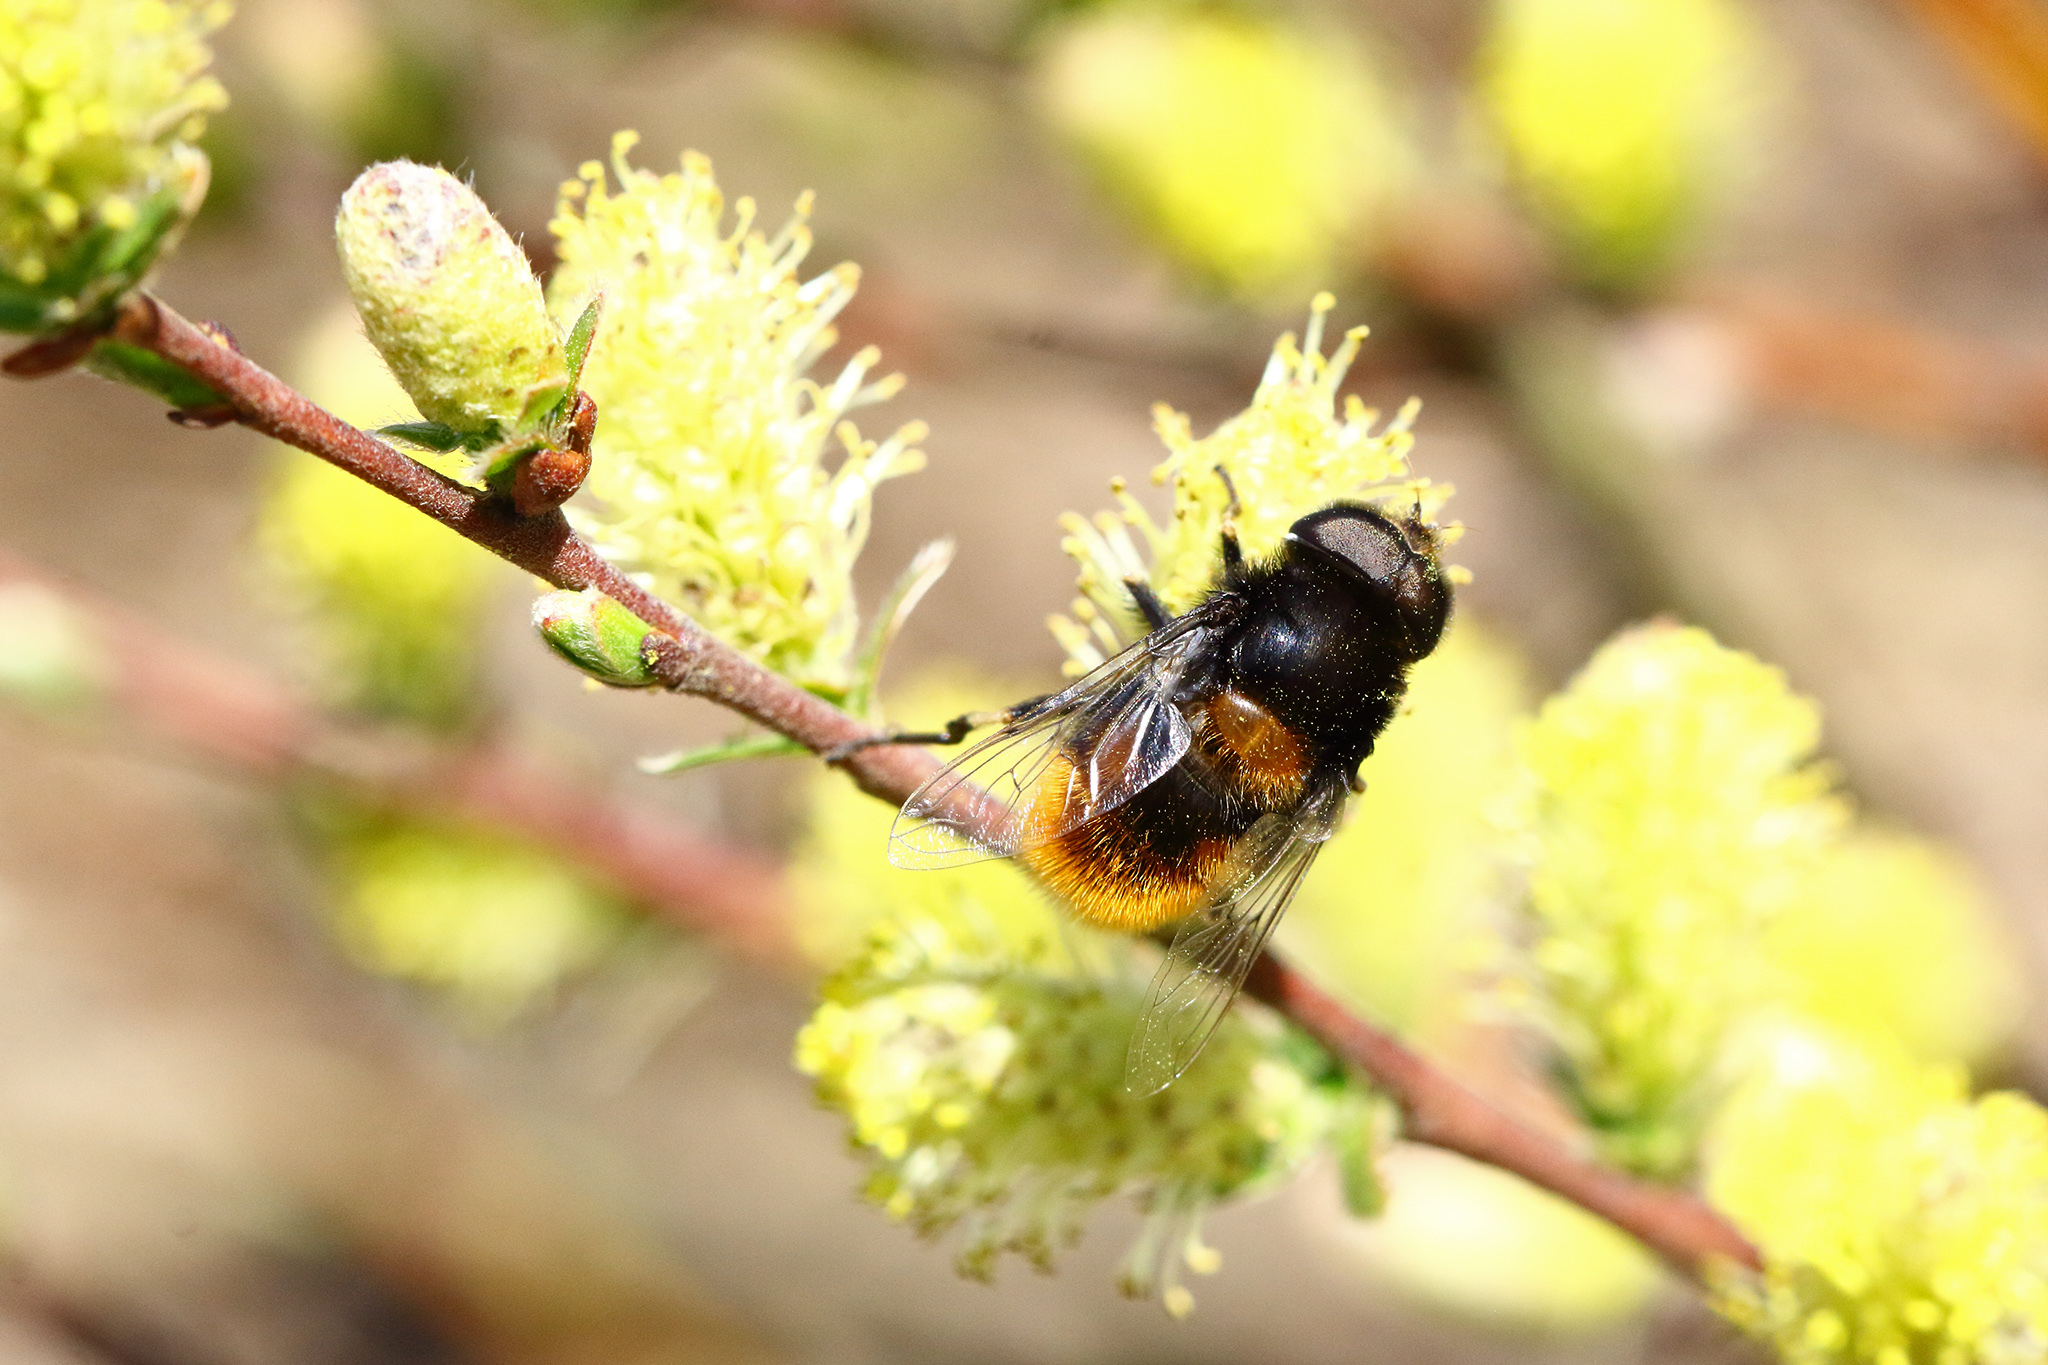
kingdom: Animalia
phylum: Arthropoda
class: Insecta
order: Diptera
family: Syrphidae
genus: Eristalis
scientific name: Eristalis intricaria
